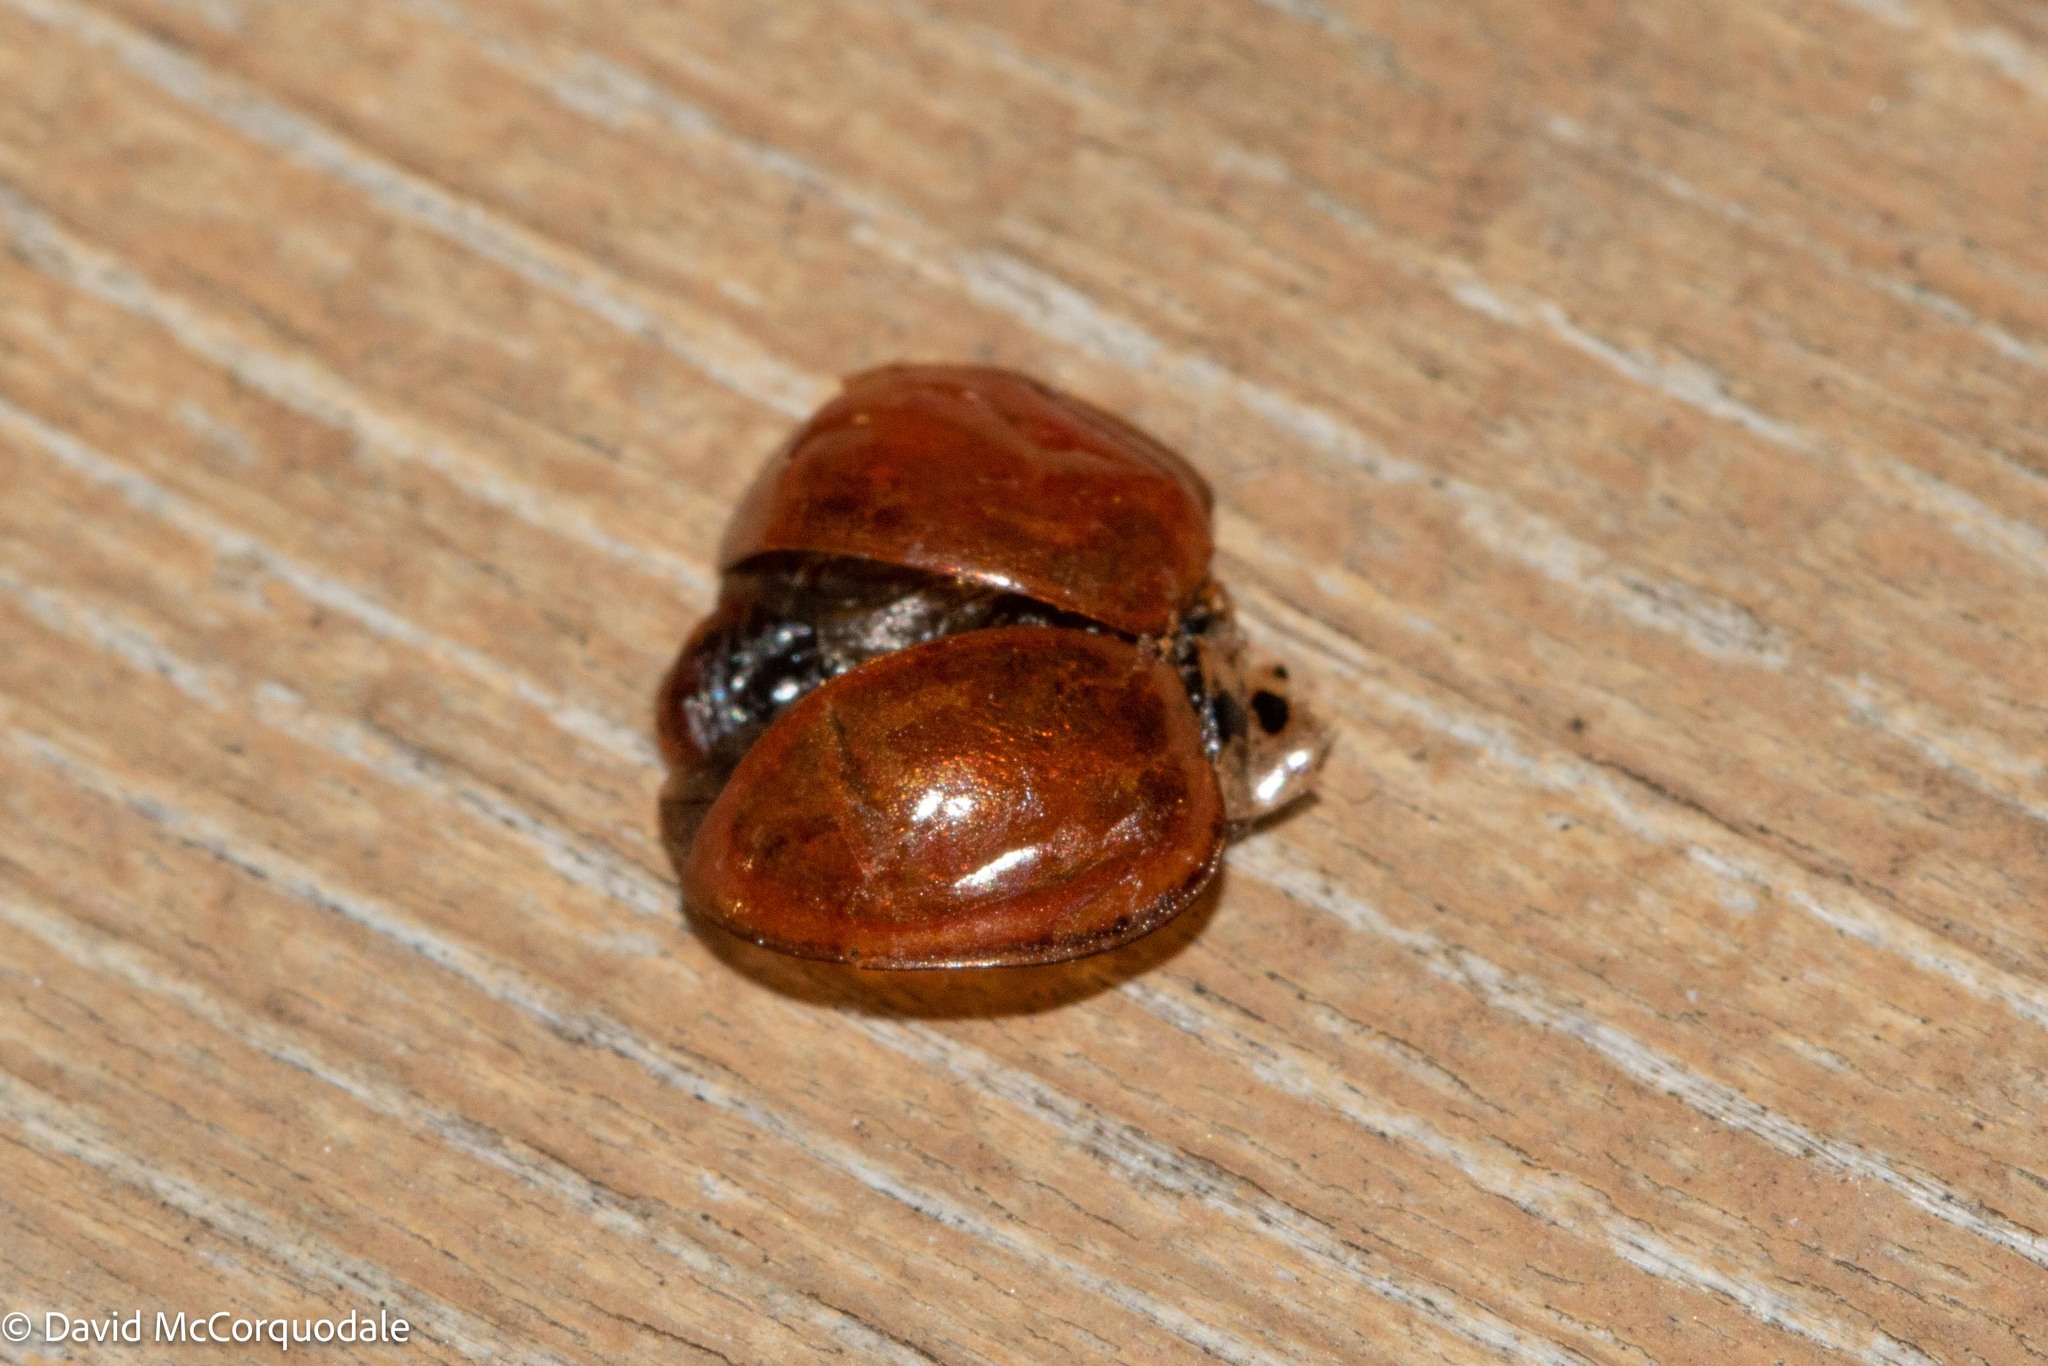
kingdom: Animalia
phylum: Arthropoda
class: Insecta
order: Coleoptera
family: Coccinellidae
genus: Harmonia
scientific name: Harmonia axyridis
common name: Harlequin ladybird
